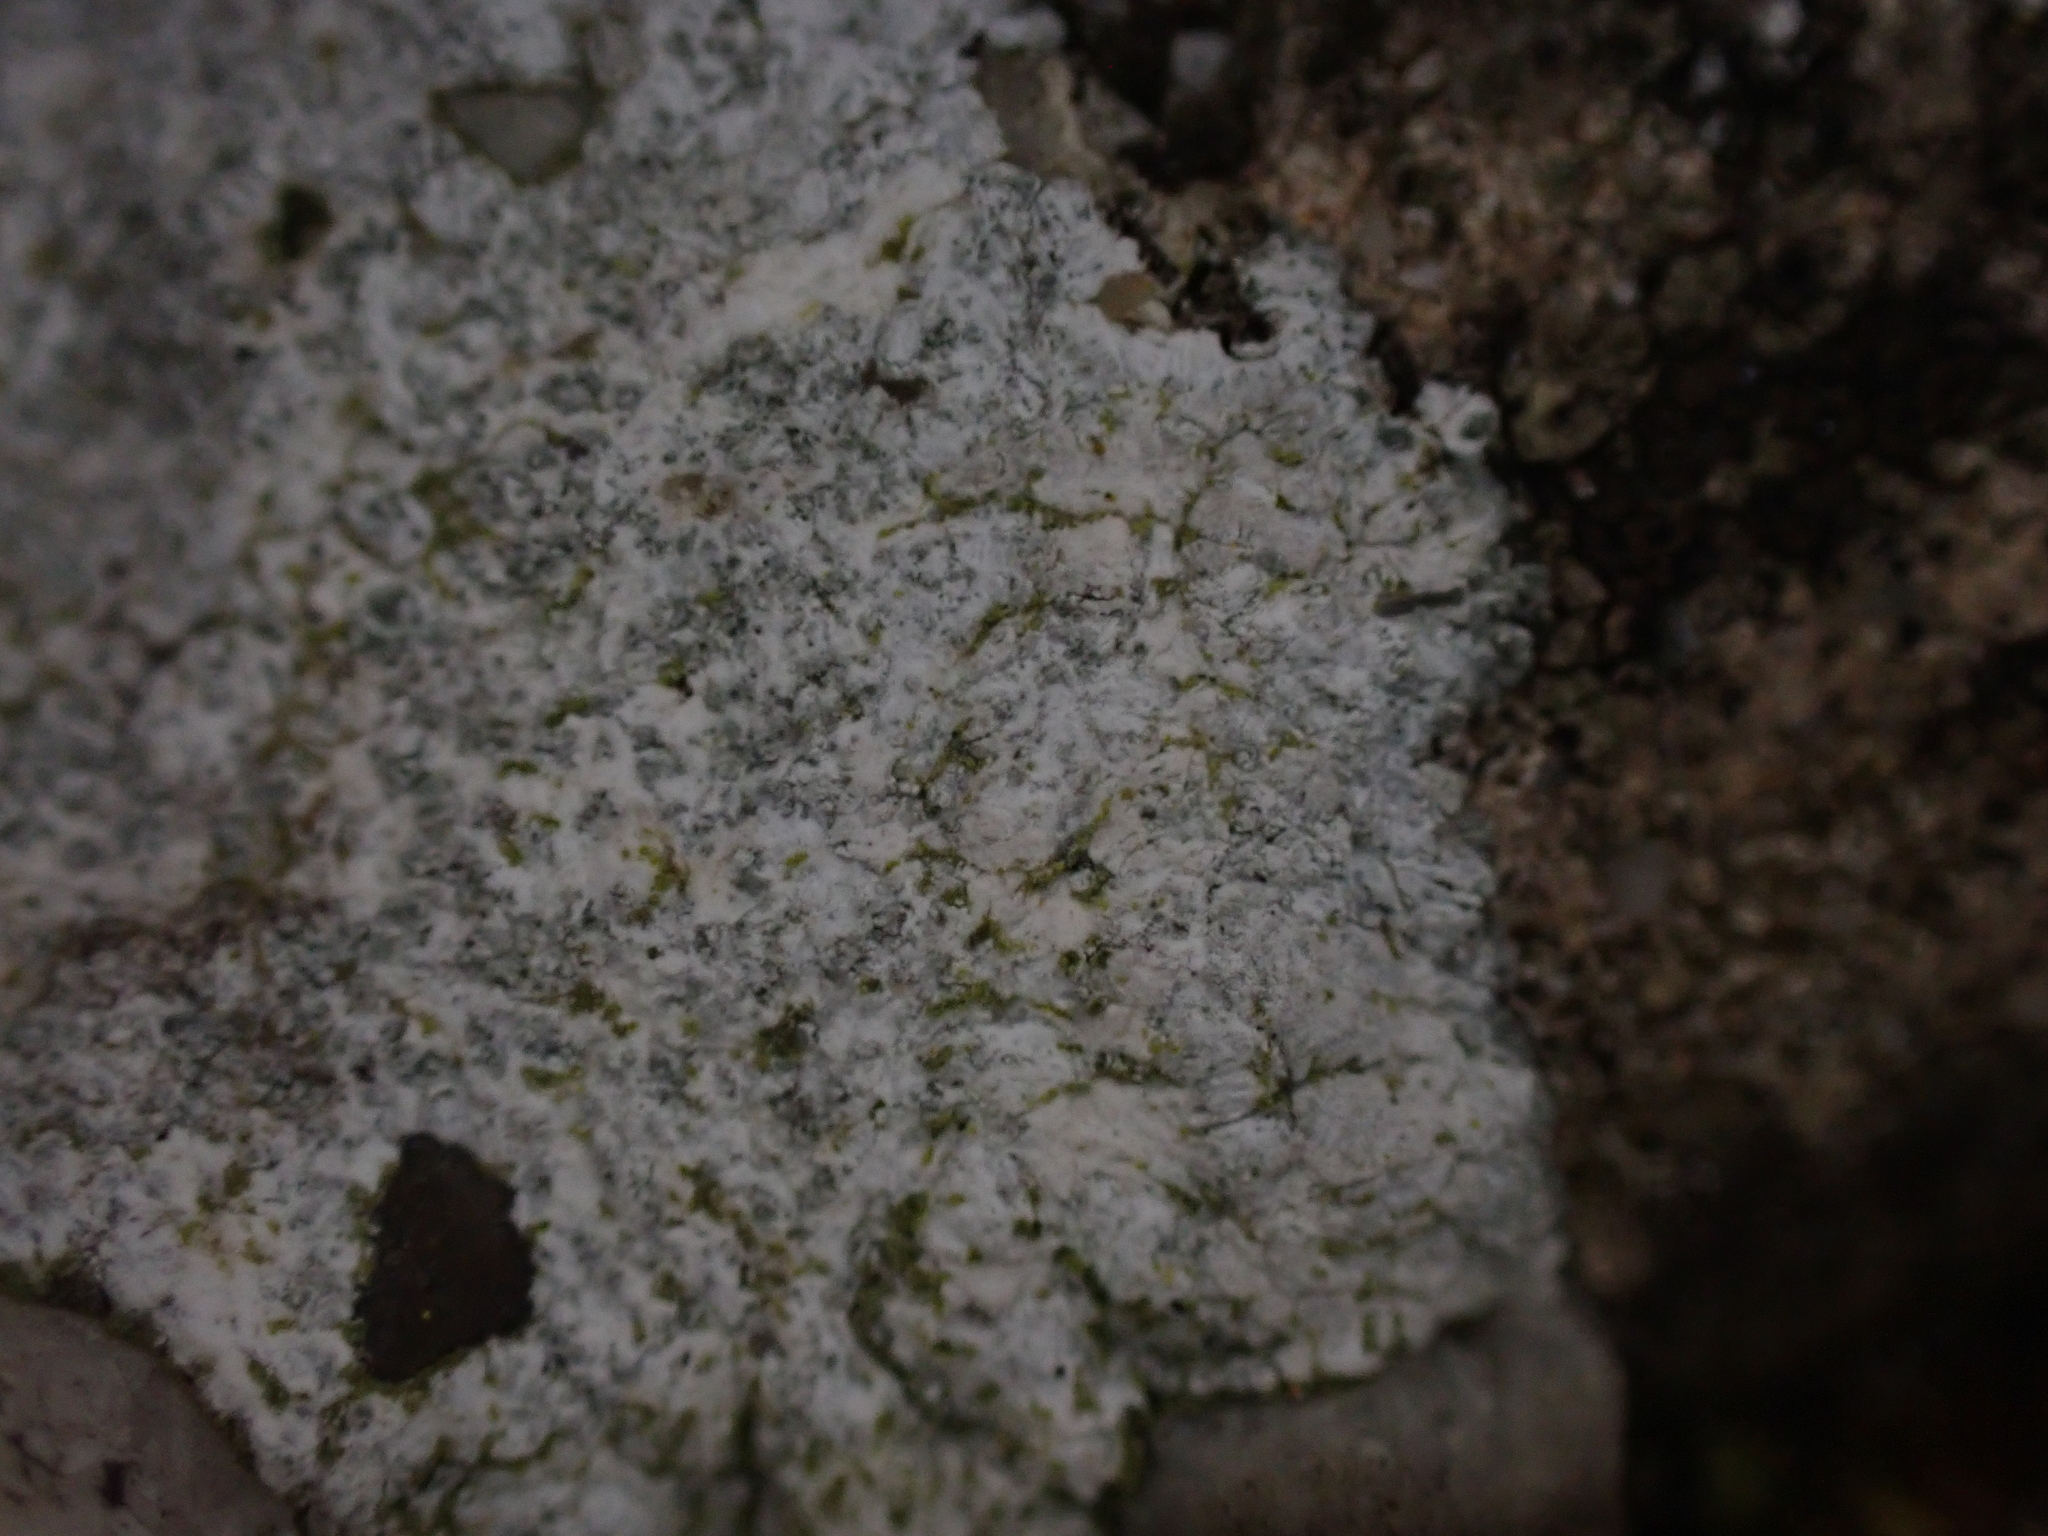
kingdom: Fungi
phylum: Ascomycota
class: Lecanoromycetes
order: Teloschistales
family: Teloschistaceae
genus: Kuettlingeria
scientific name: Kuettlingeria teicholyta
